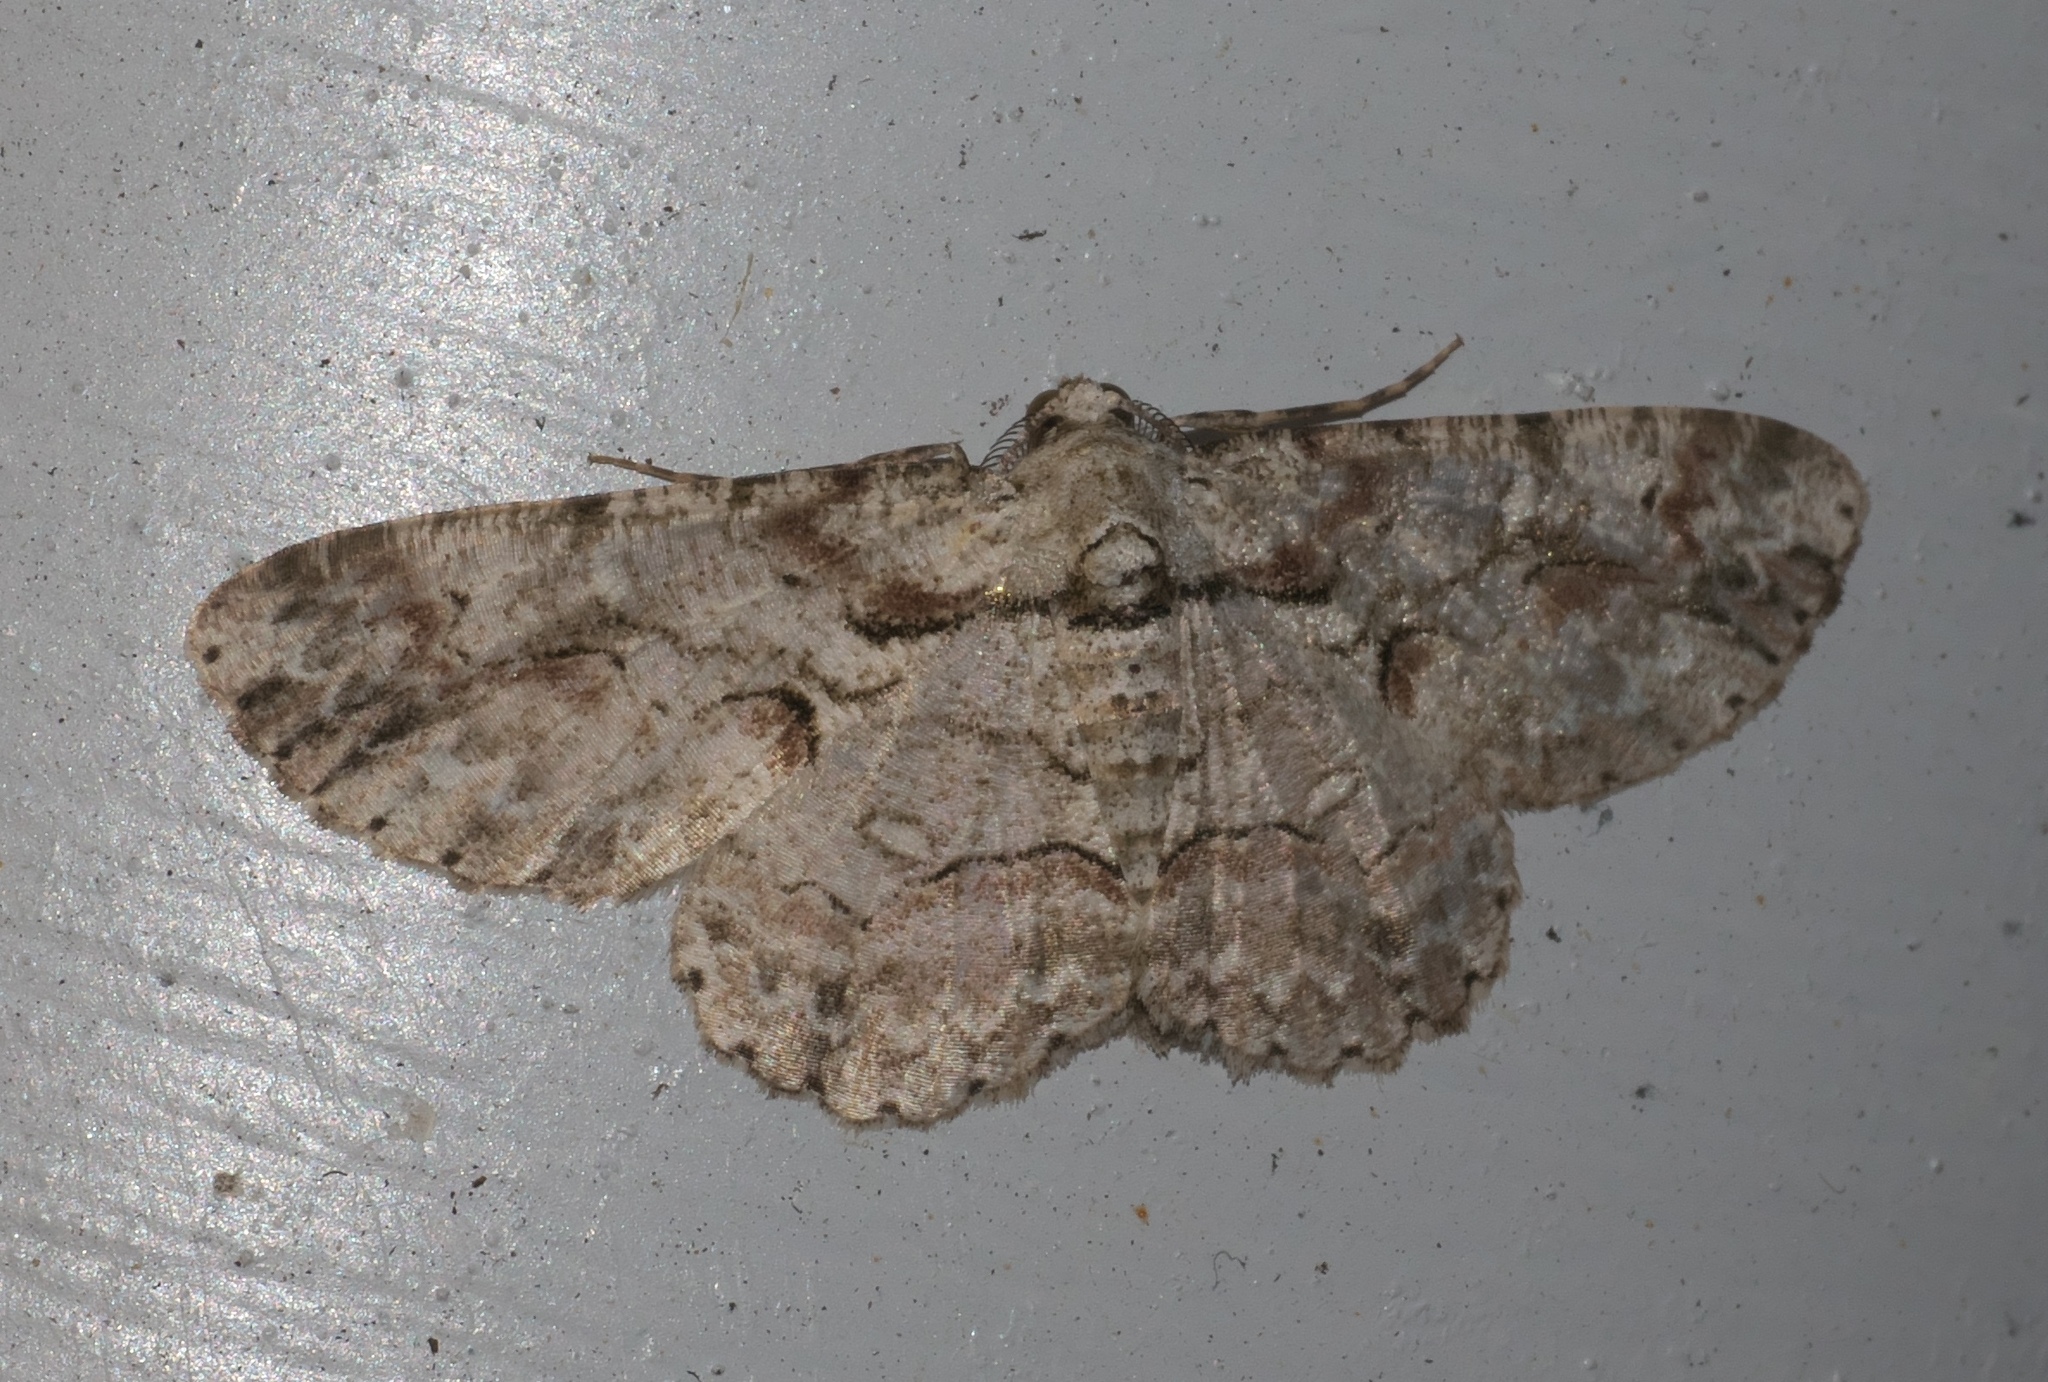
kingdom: Animalia
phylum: Arthropoda
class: Insecta
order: Lepidoptera
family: Geometridae
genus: Iridopsis
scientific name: Iridopsis defectaria
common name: Brown-shaded gray
